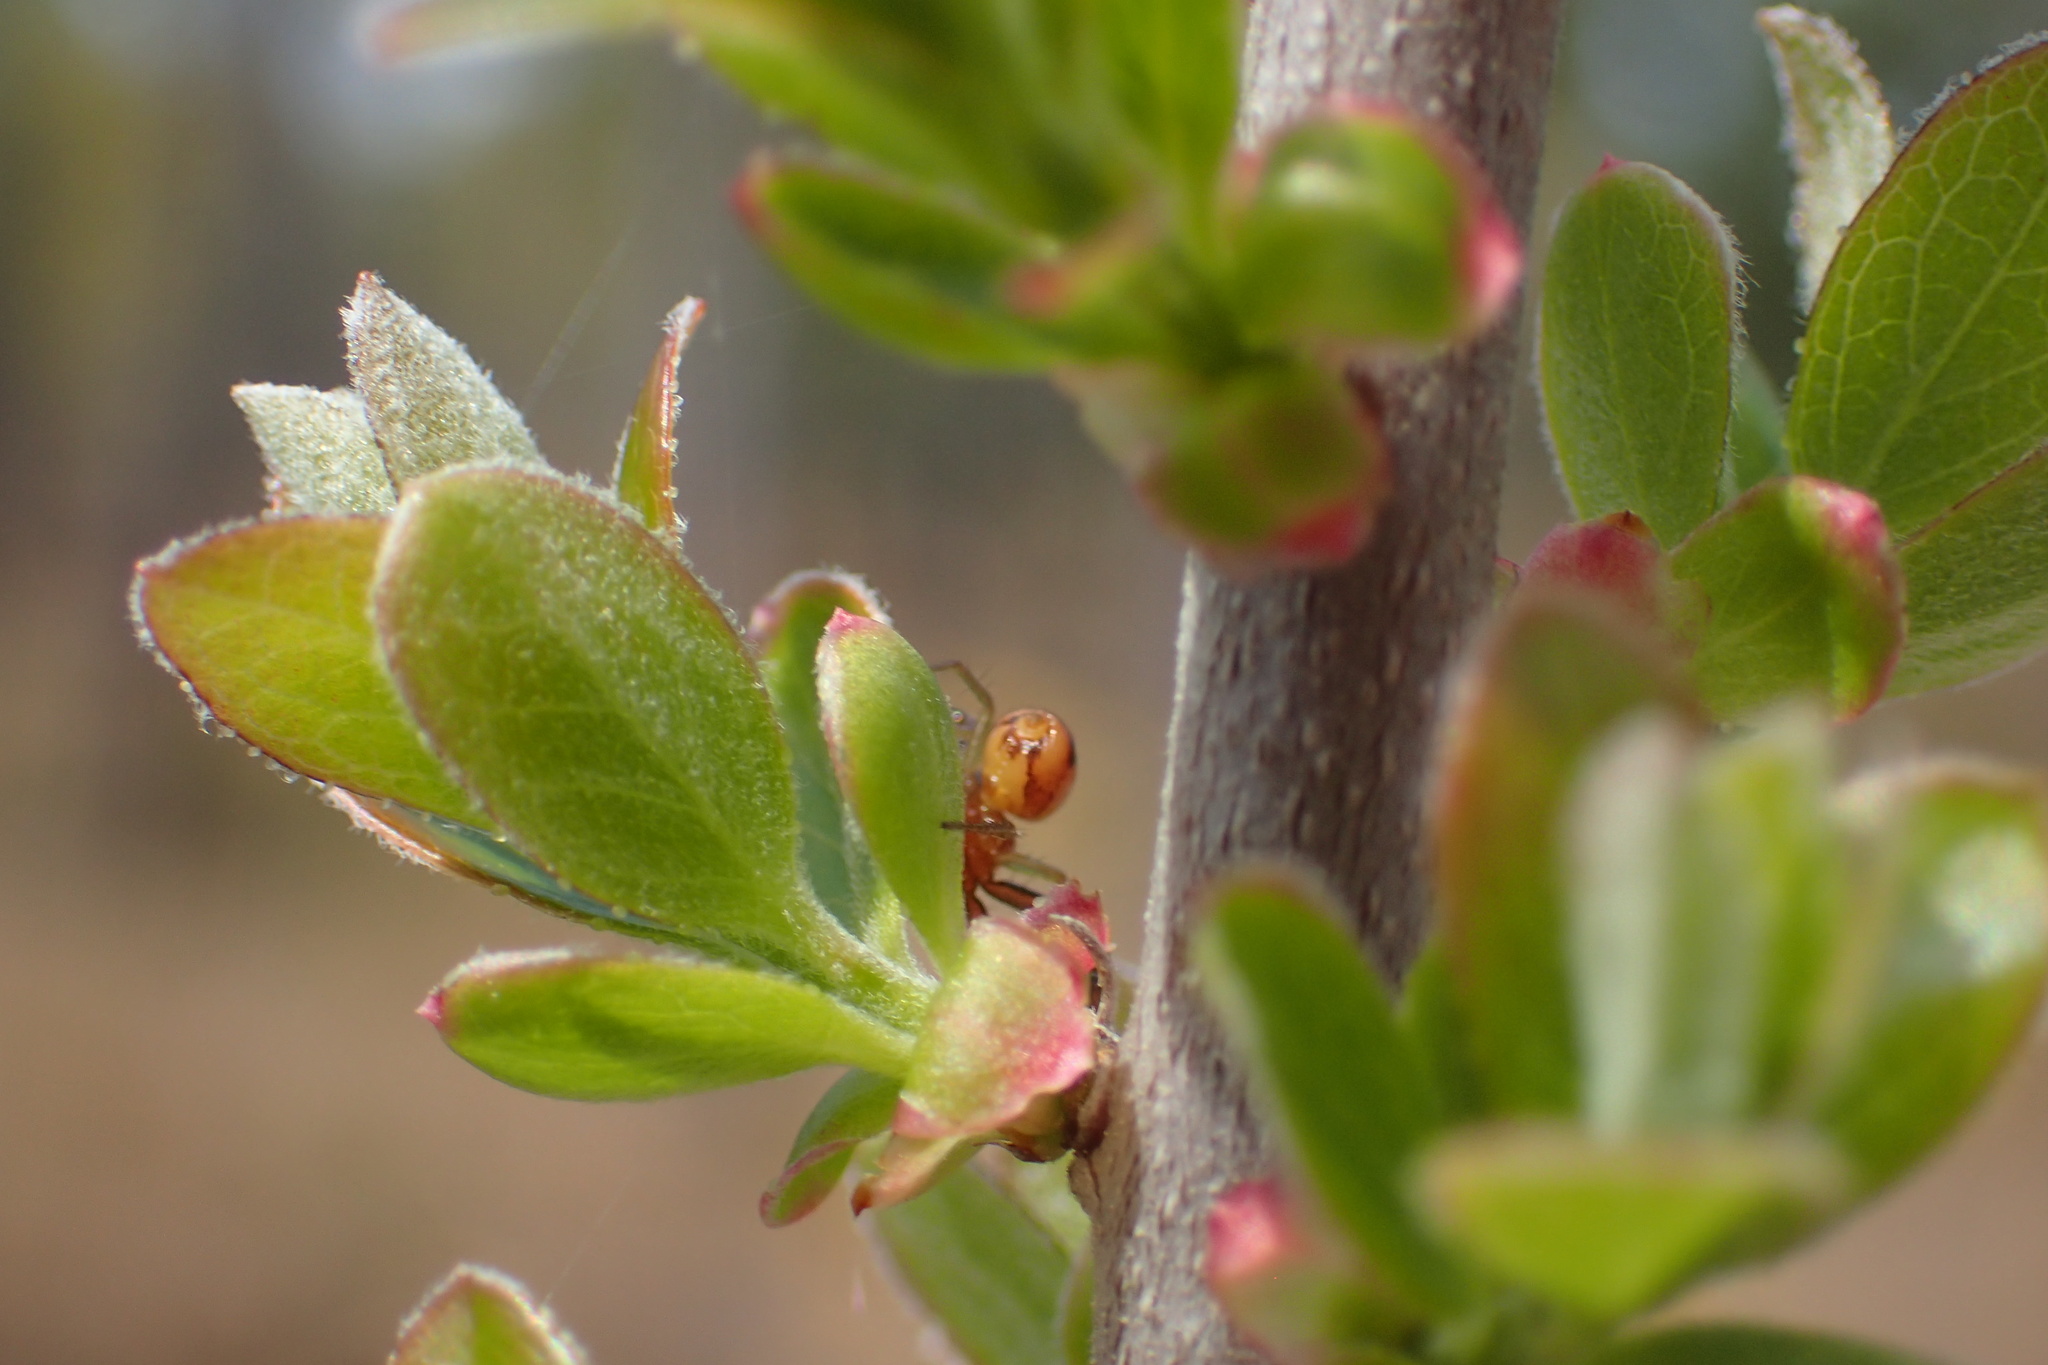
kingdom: Animalia
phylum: Arthropoda
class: Arachnida
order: Araneae
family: Thomisidae
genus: Synema
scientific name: Synema parvulum
